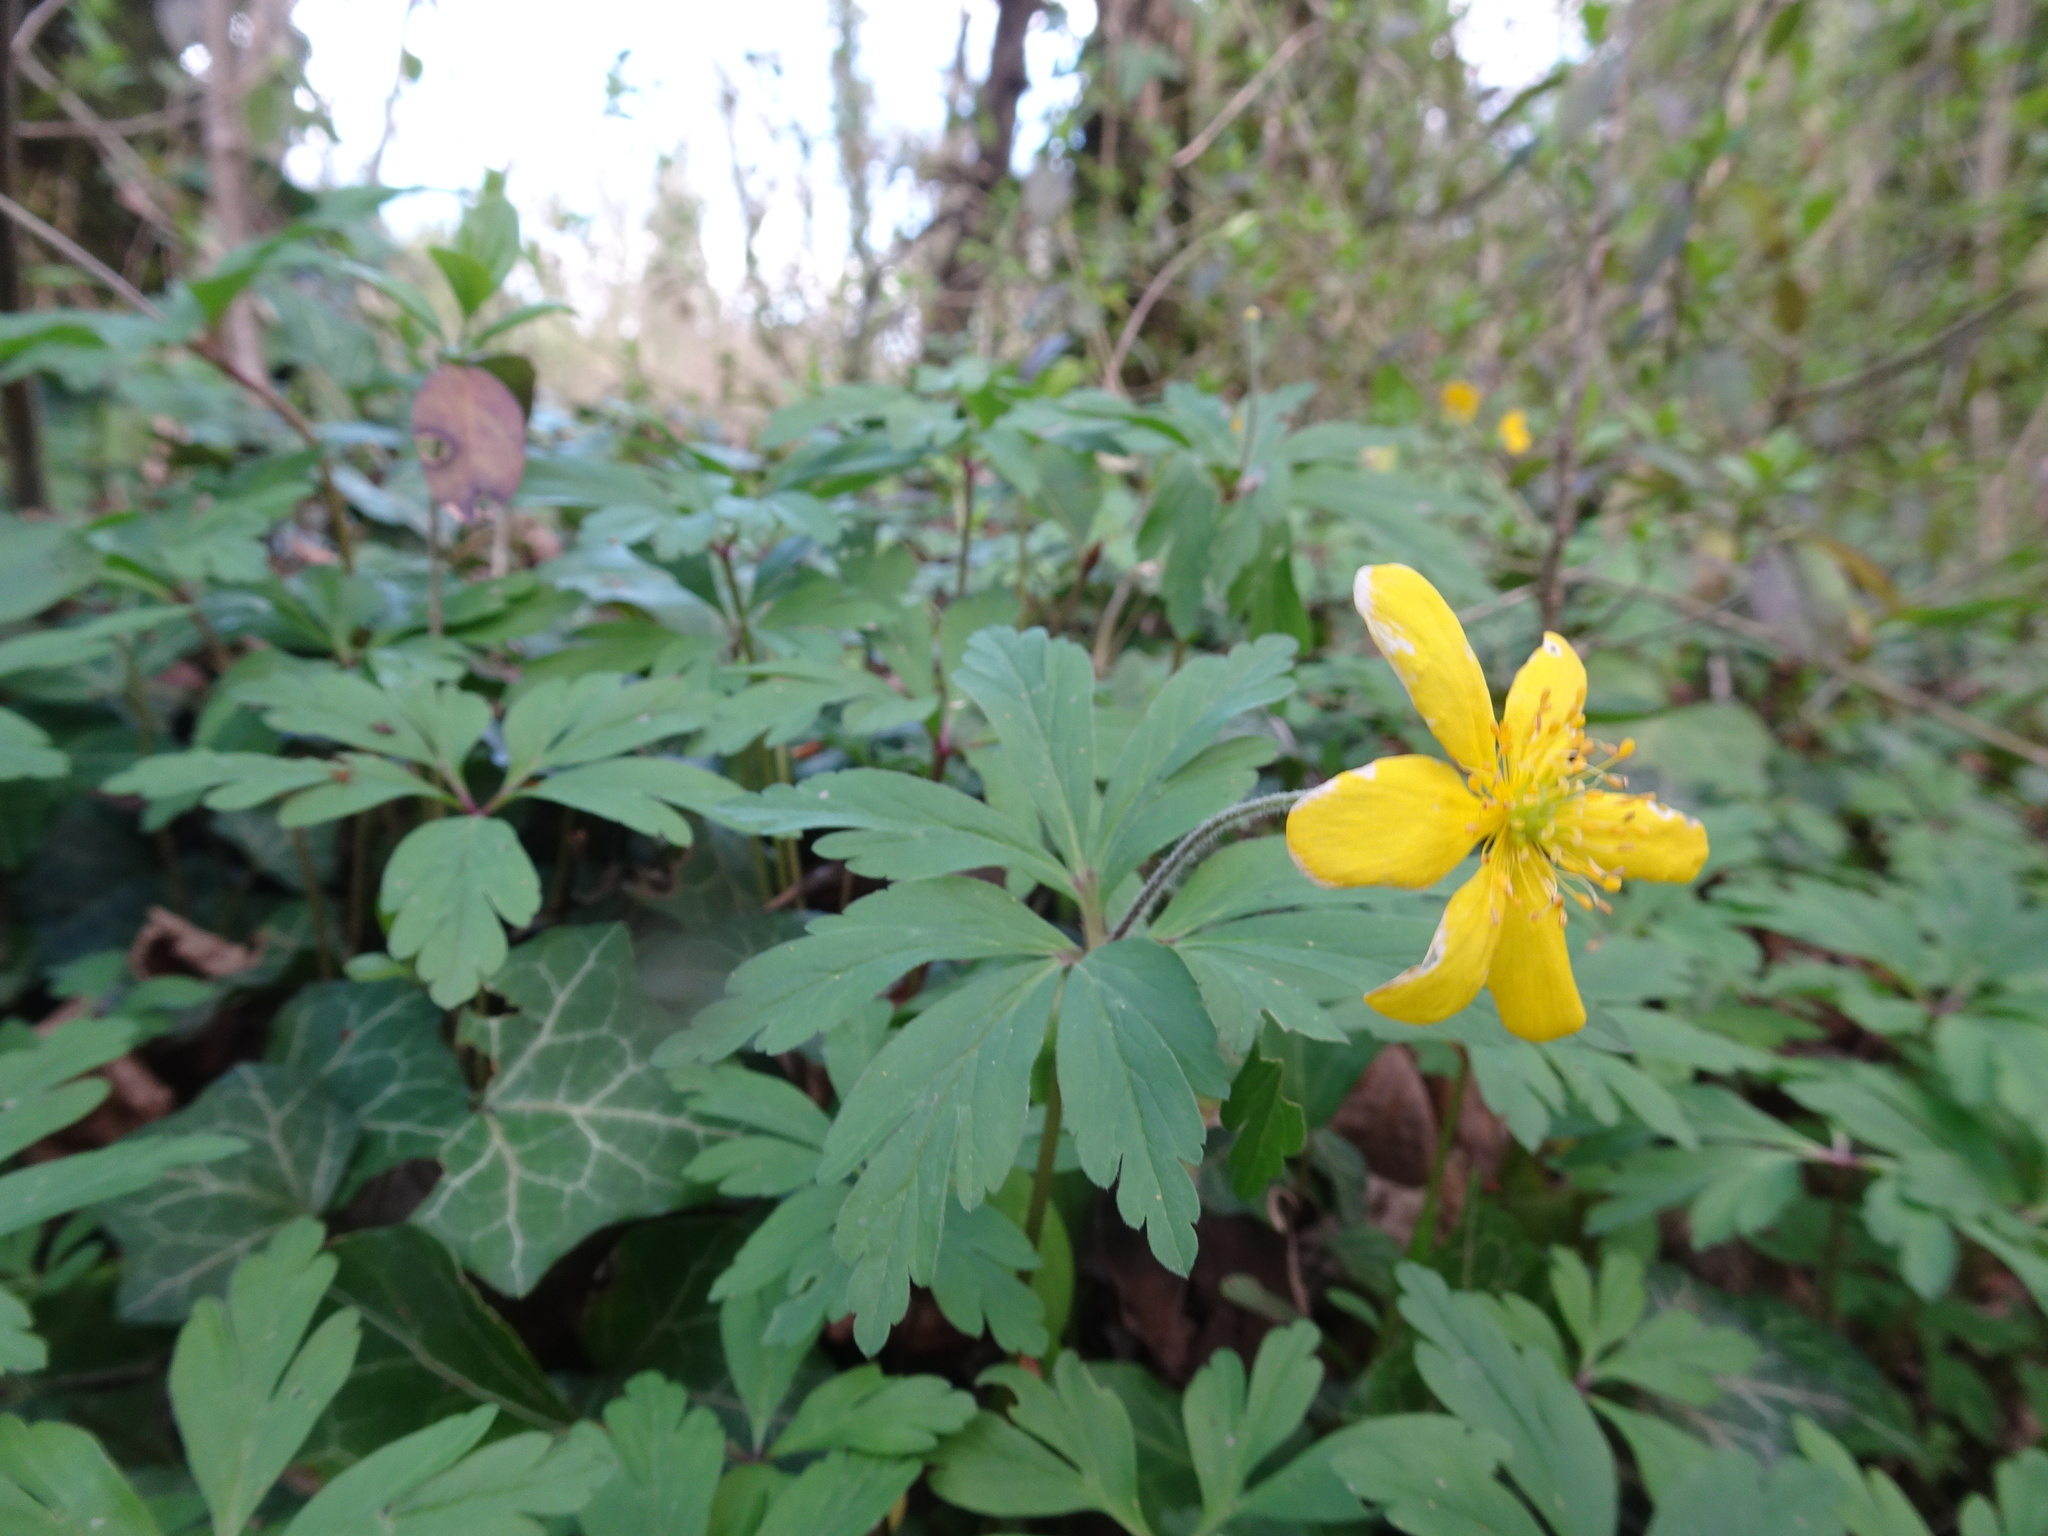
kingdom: Plantae
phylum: Tracheophyta
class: Magnoliopsida
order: Ranunculales
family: Ranunculaceae
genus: Anemone
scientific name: Anemone ranunculoides
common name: Yellow anemone
